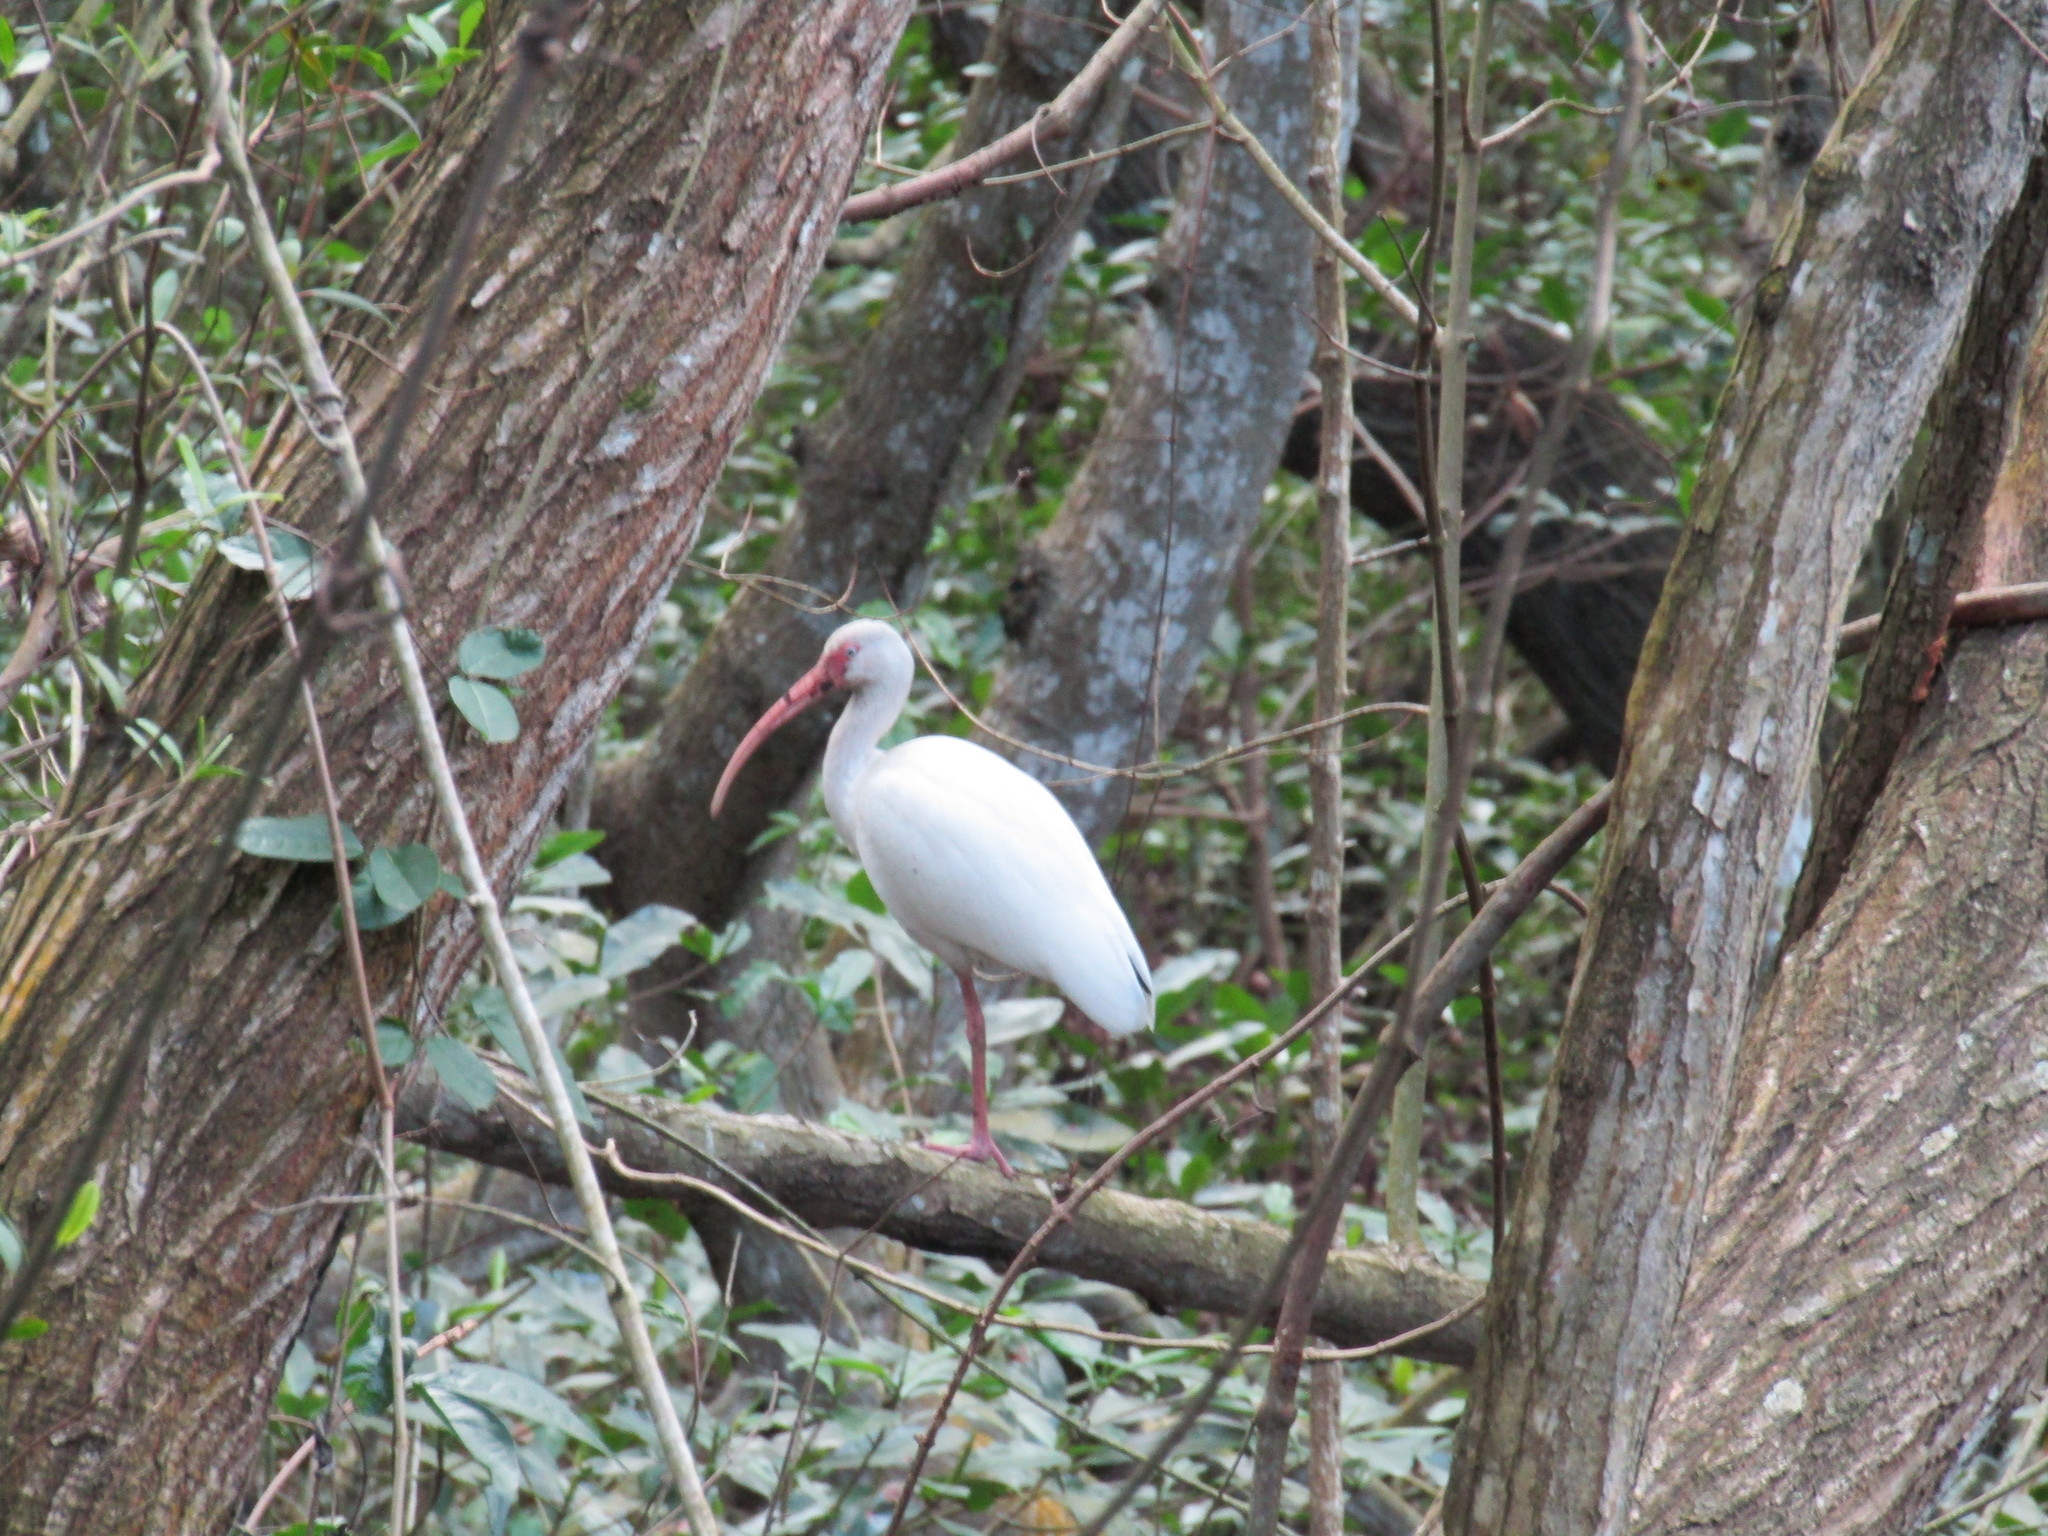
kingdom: Animalia
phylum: Chordata
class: Aves
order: Pelecaniformes
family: Threskiornithidae
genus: Eudocimus
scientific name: Eudocimus albus
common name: White ibis
